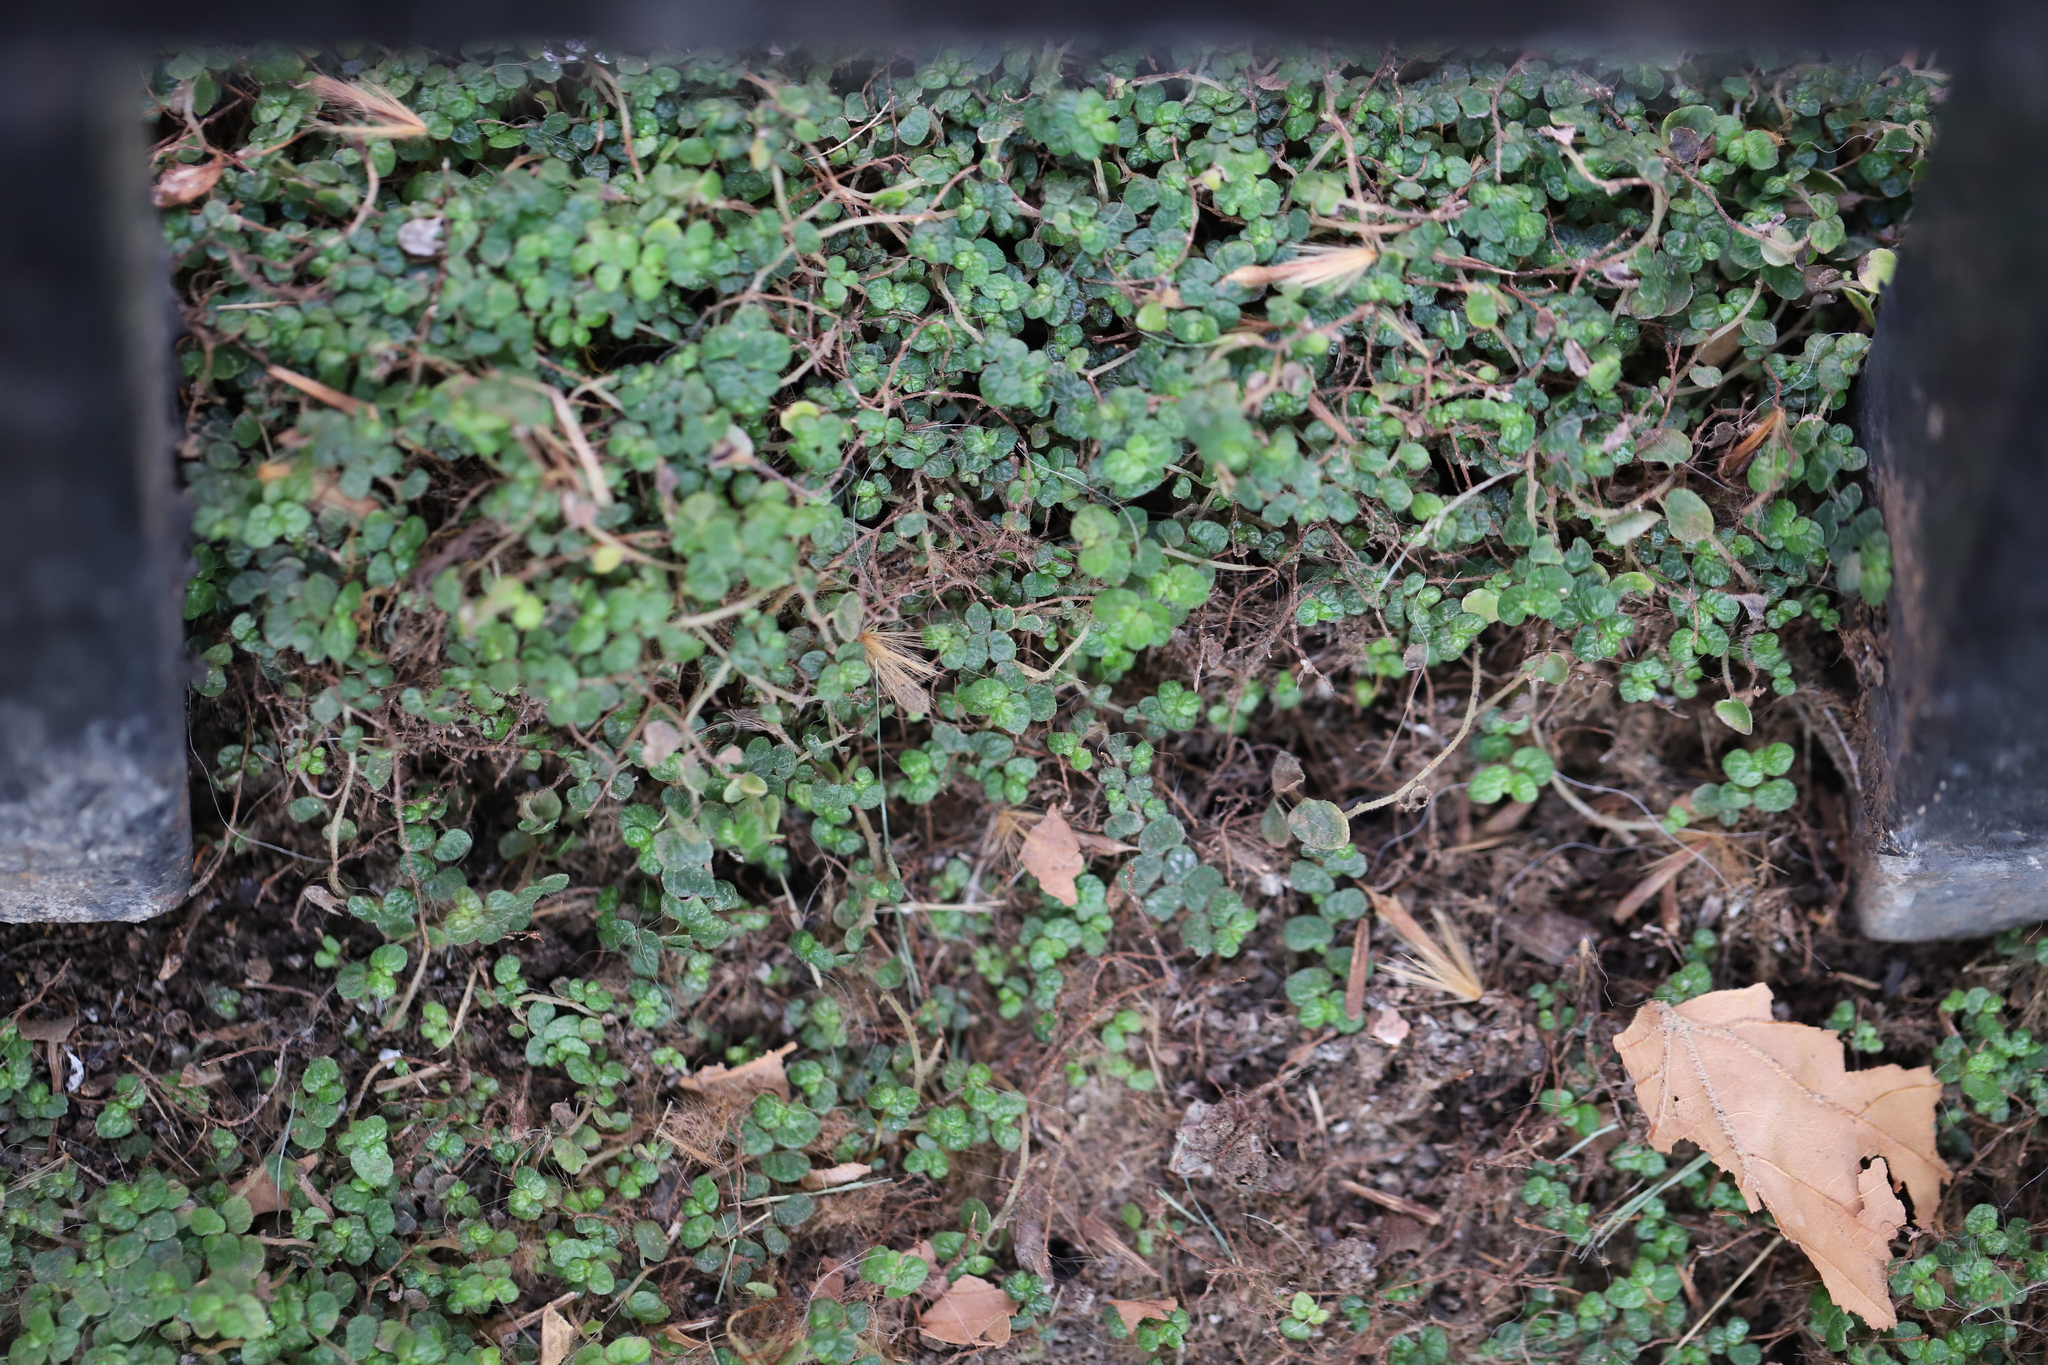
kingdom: Plantae
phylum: Tracheophyta
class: Magnoliopsida
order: Rosales
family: Urticaceae
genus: Soleirolia
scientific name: Soleirolia soleirolii
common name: Mind-your-own-business
